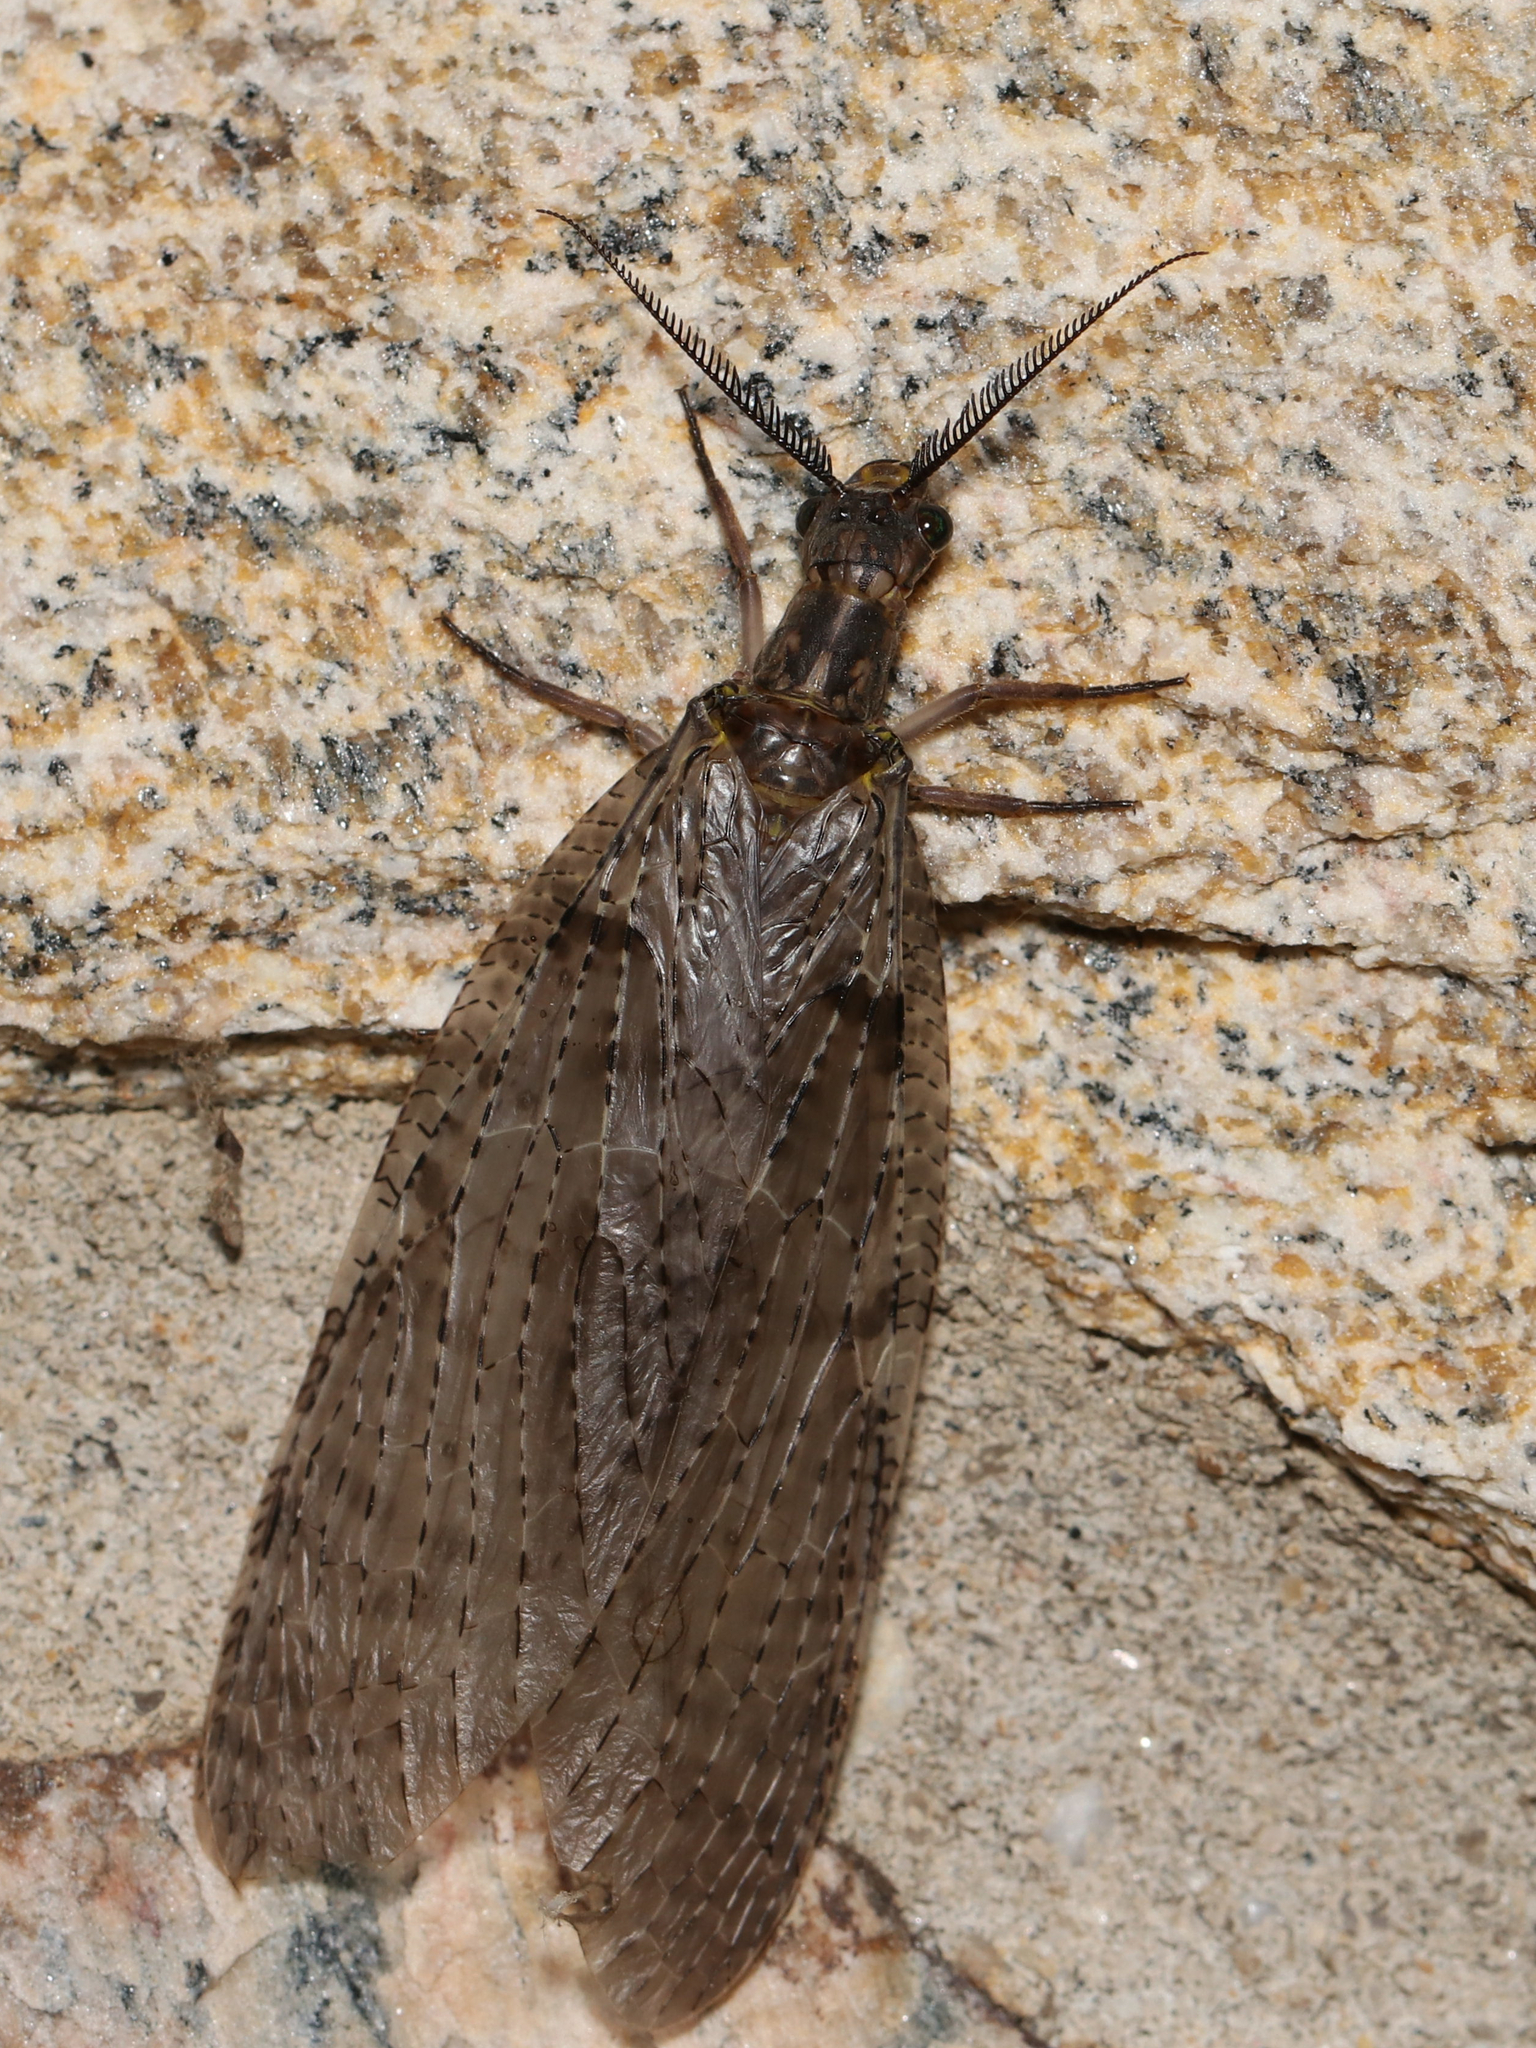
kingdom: Animalia
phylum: Arthropoda
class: Insecta
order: Megaloptera
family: Corydalidae
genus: Chauliodes
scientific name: Chauliodes pectinicornis
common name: Summer fishfly
